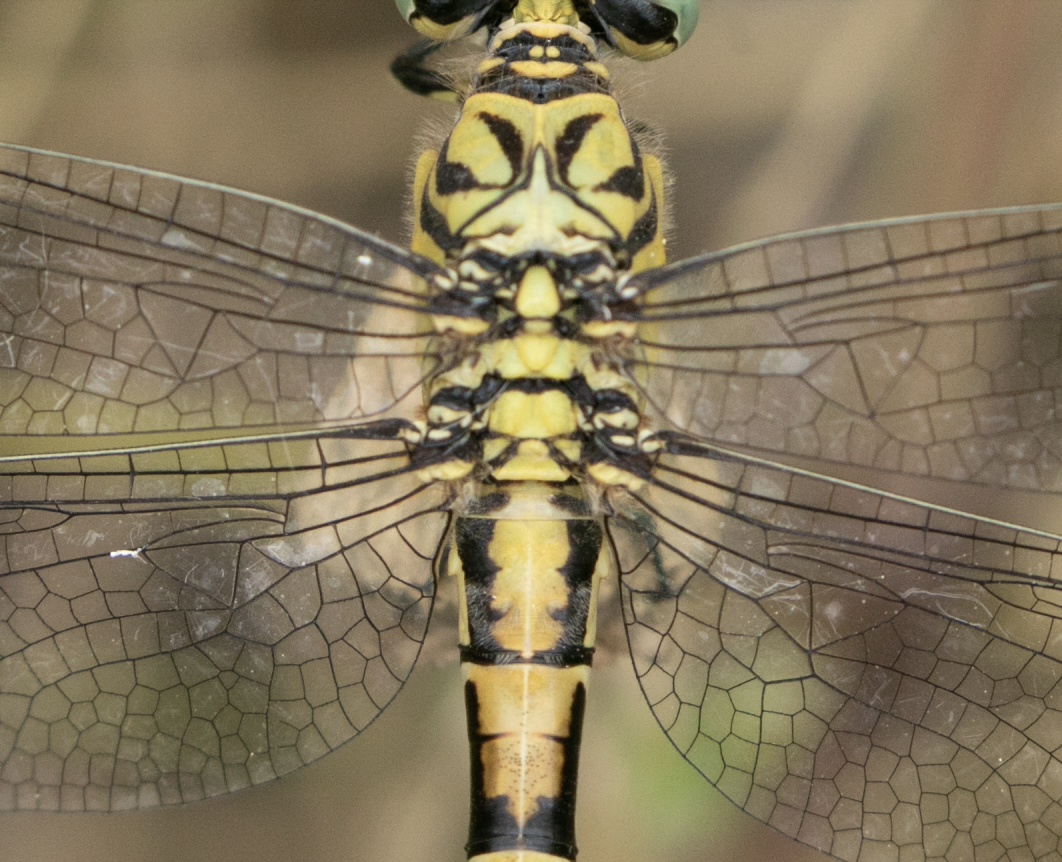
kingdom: Animalia
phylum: Arthropoda
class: Insecta
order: Odonata
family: Gomphidae
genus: Onychogomphus
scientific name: Onychogomphus forcipatus
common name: Small pincertail
